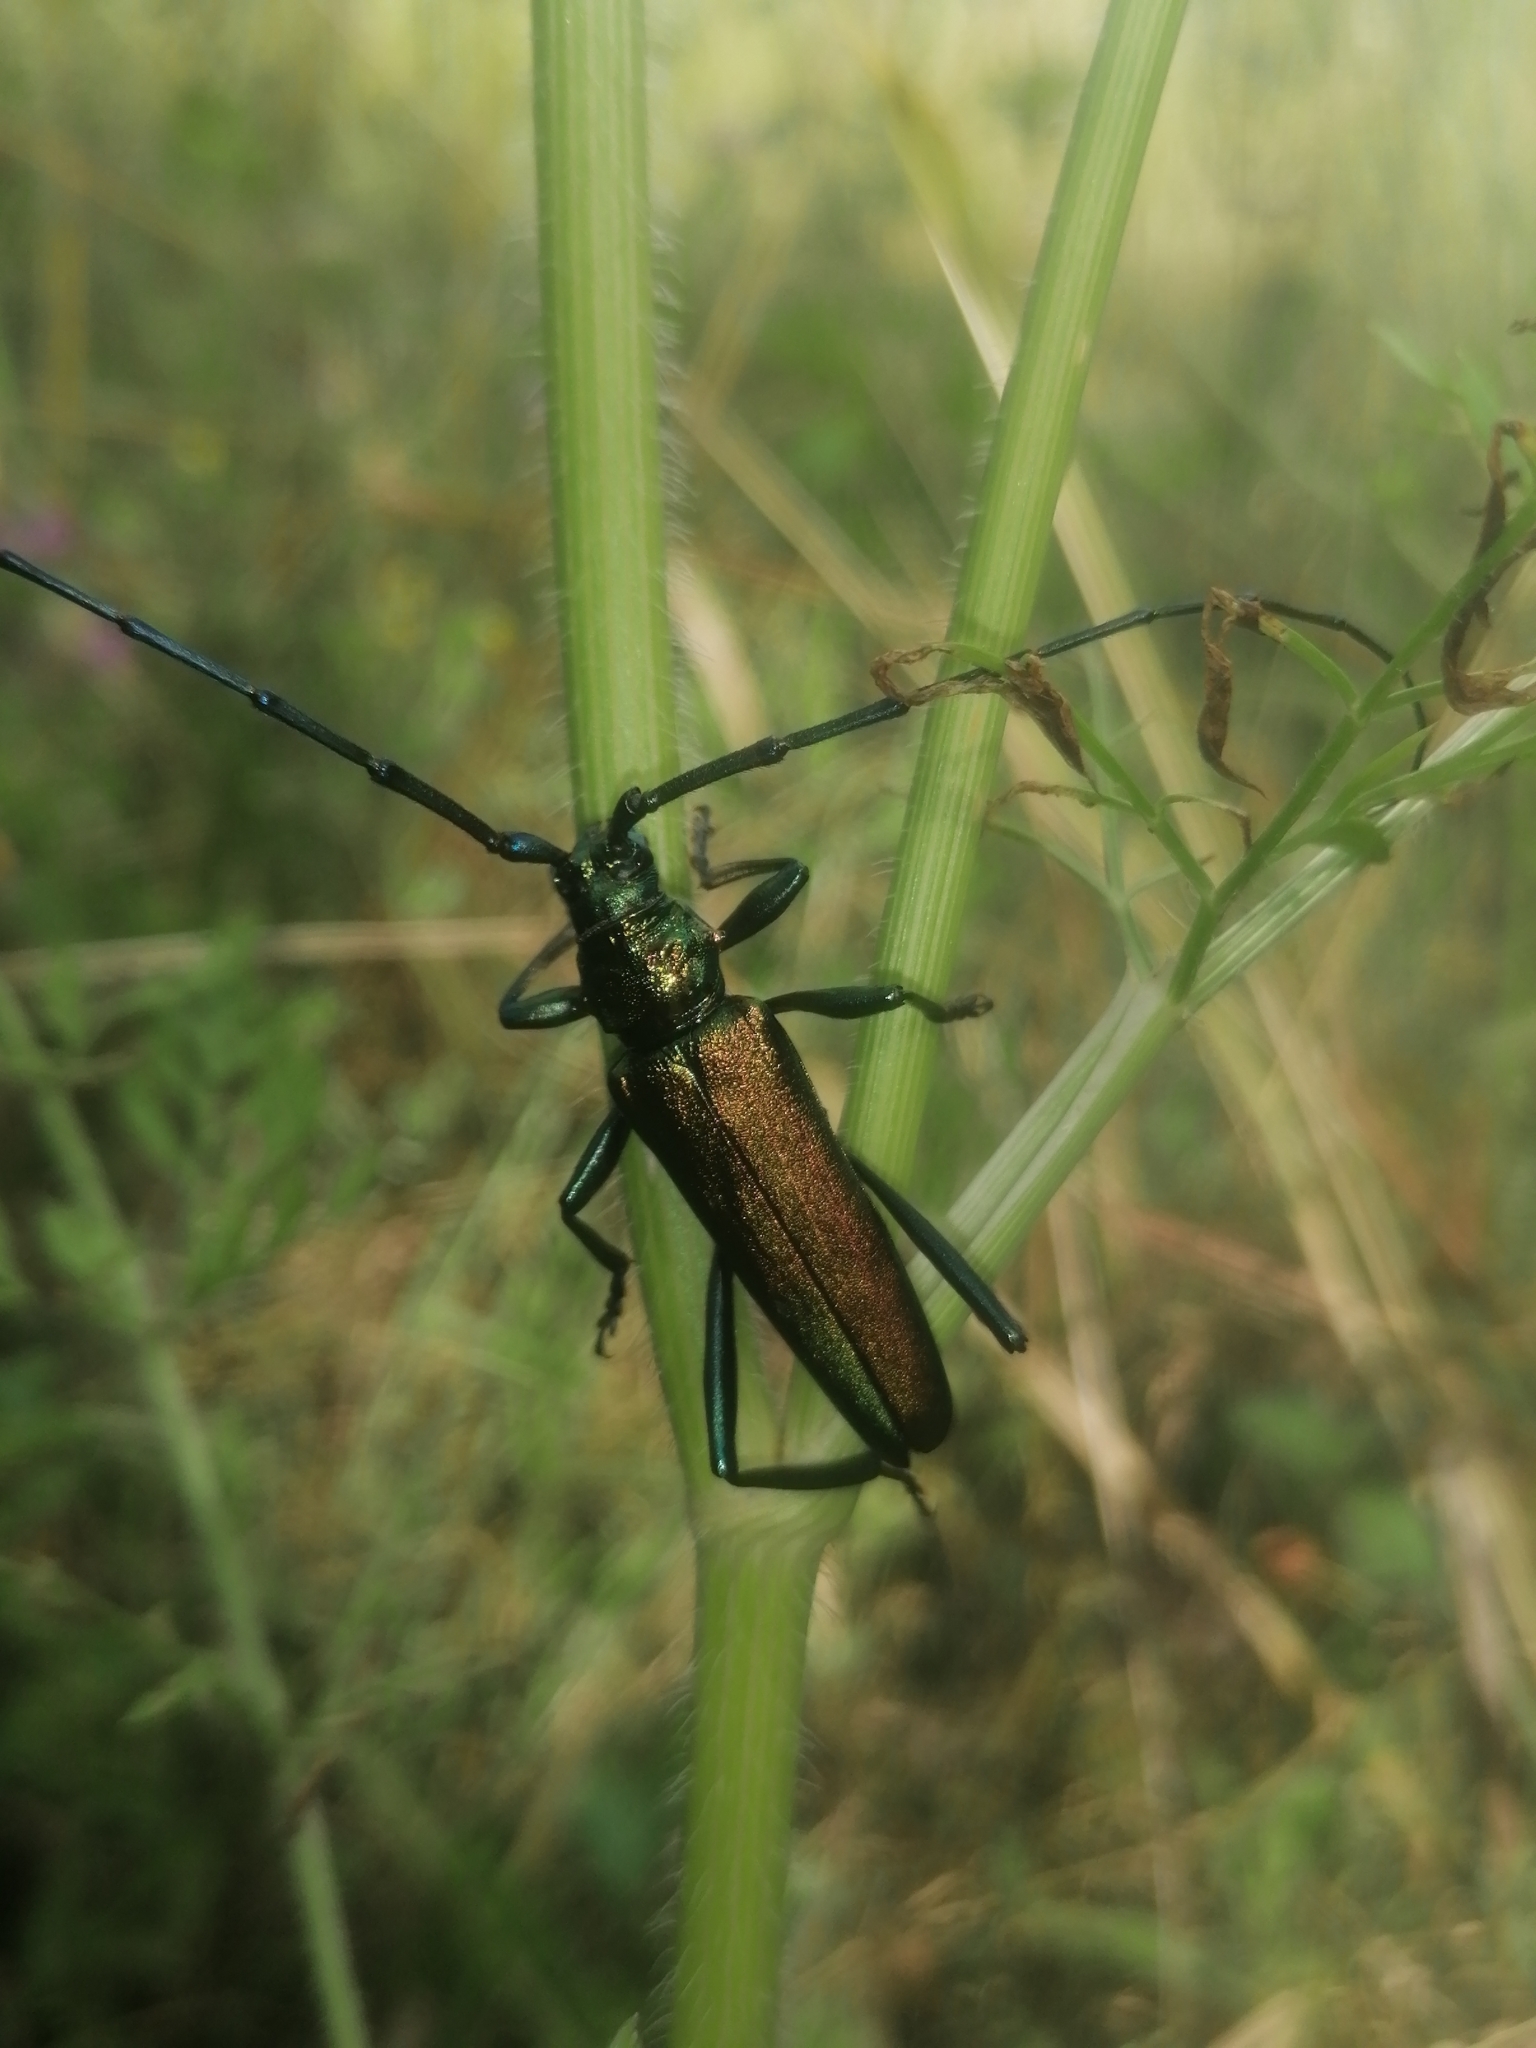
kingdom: Animalia
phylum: Arthropoda
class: Insecta
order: Coleoptera
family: Cerambycidae
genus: Aromia
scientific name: Aromia moschata
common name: Musk beetle
